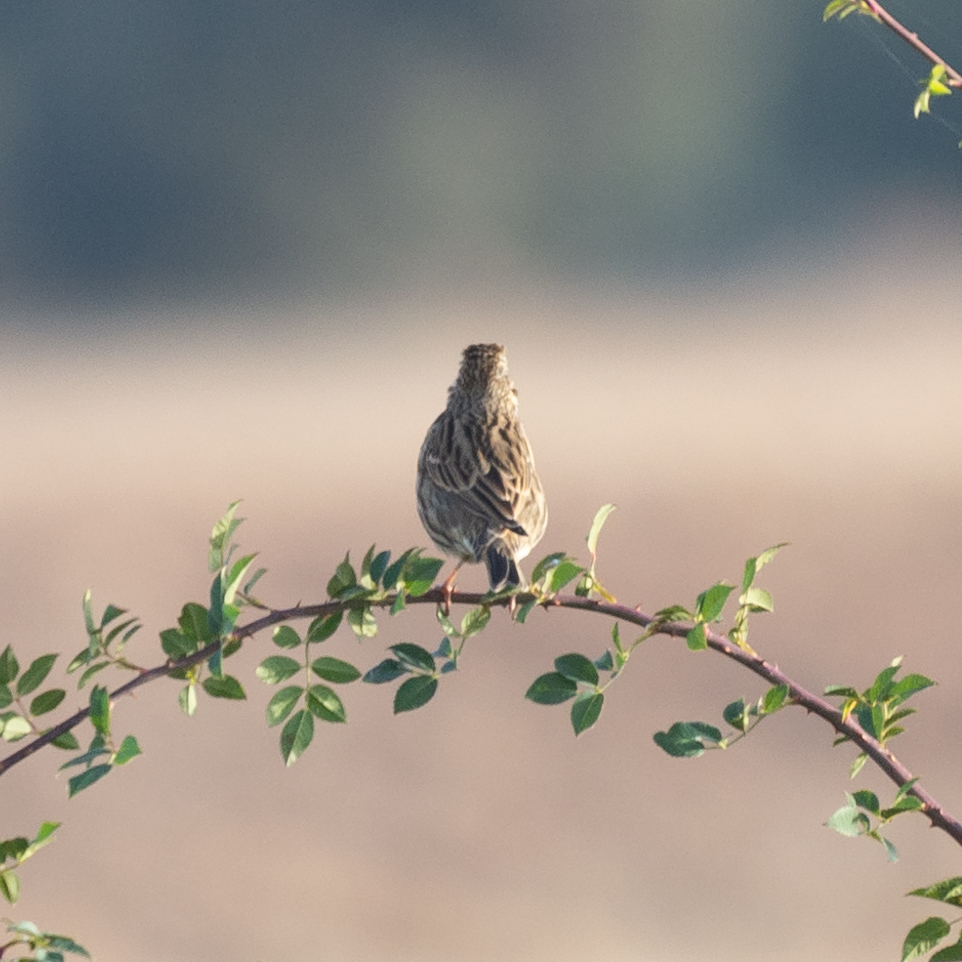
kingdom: Animalia
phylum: Chordata
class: Aves
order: Passeriformes
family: Emberizidae
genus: Emberiza
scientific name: Emberiza calandra
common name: Corn bunting
